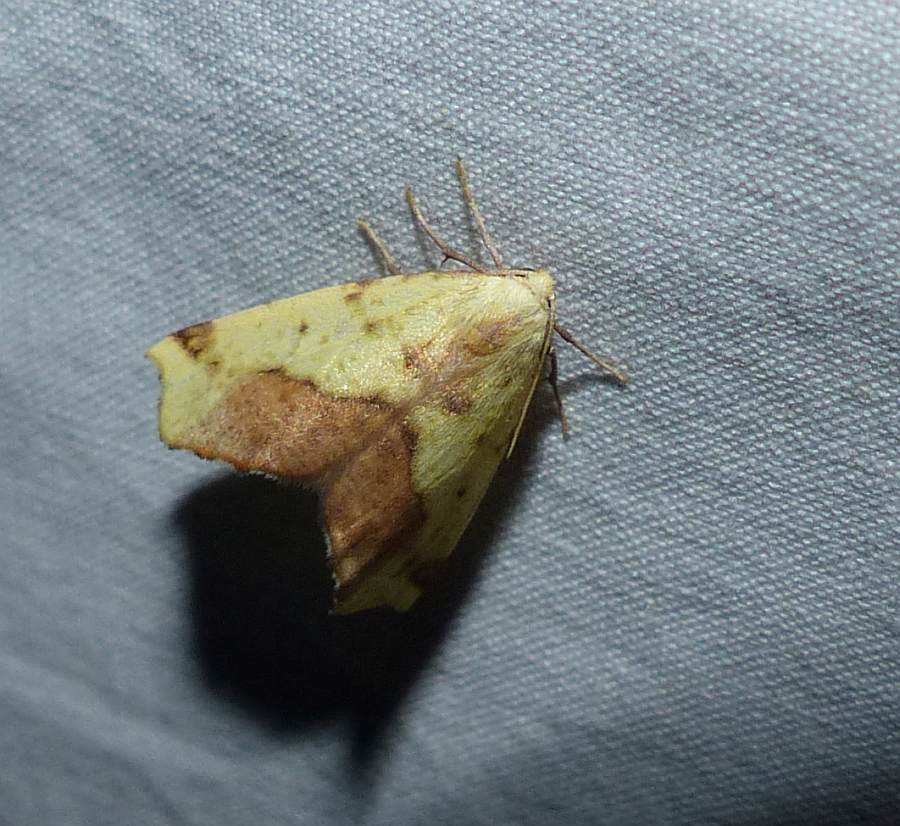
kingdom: Animalia
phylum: Arthropoda
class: Insecta
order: Lepidoptera
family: Geometridae
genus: Sicya
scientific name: Sicya macularia
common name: Sharp-lined yellow
